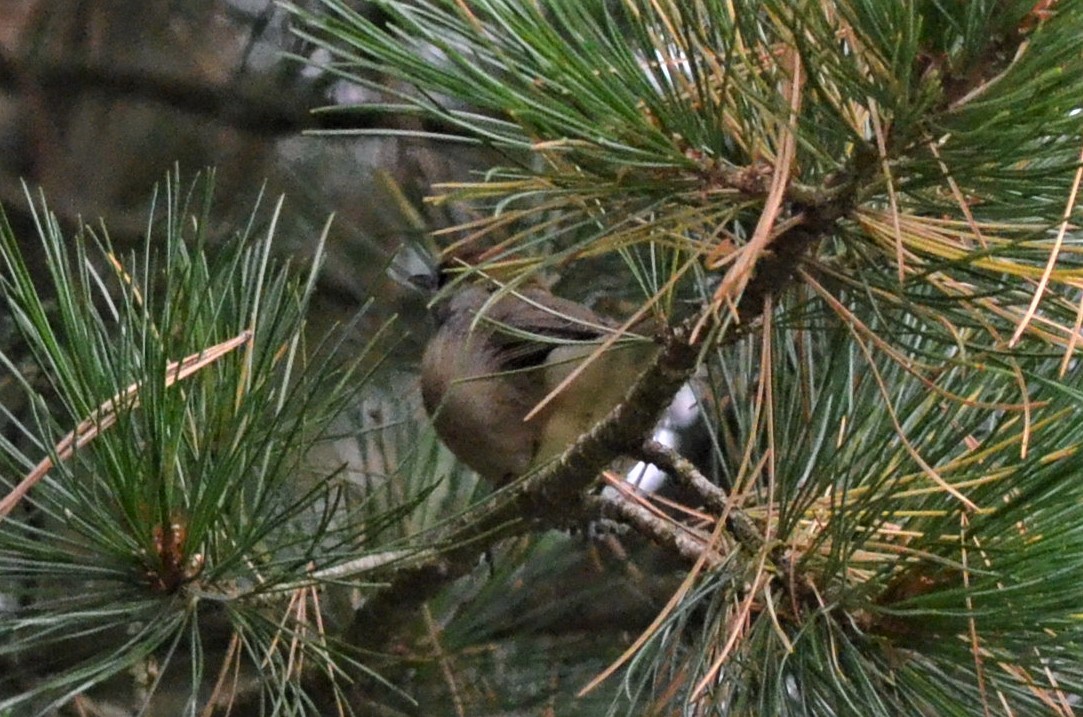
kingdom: Animalia
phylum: Chordata
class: Aves
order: Passeriformes
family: Sylviidae
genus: Sylvia
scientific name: Sylvia atricapilla
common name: Eurasian blackcap
